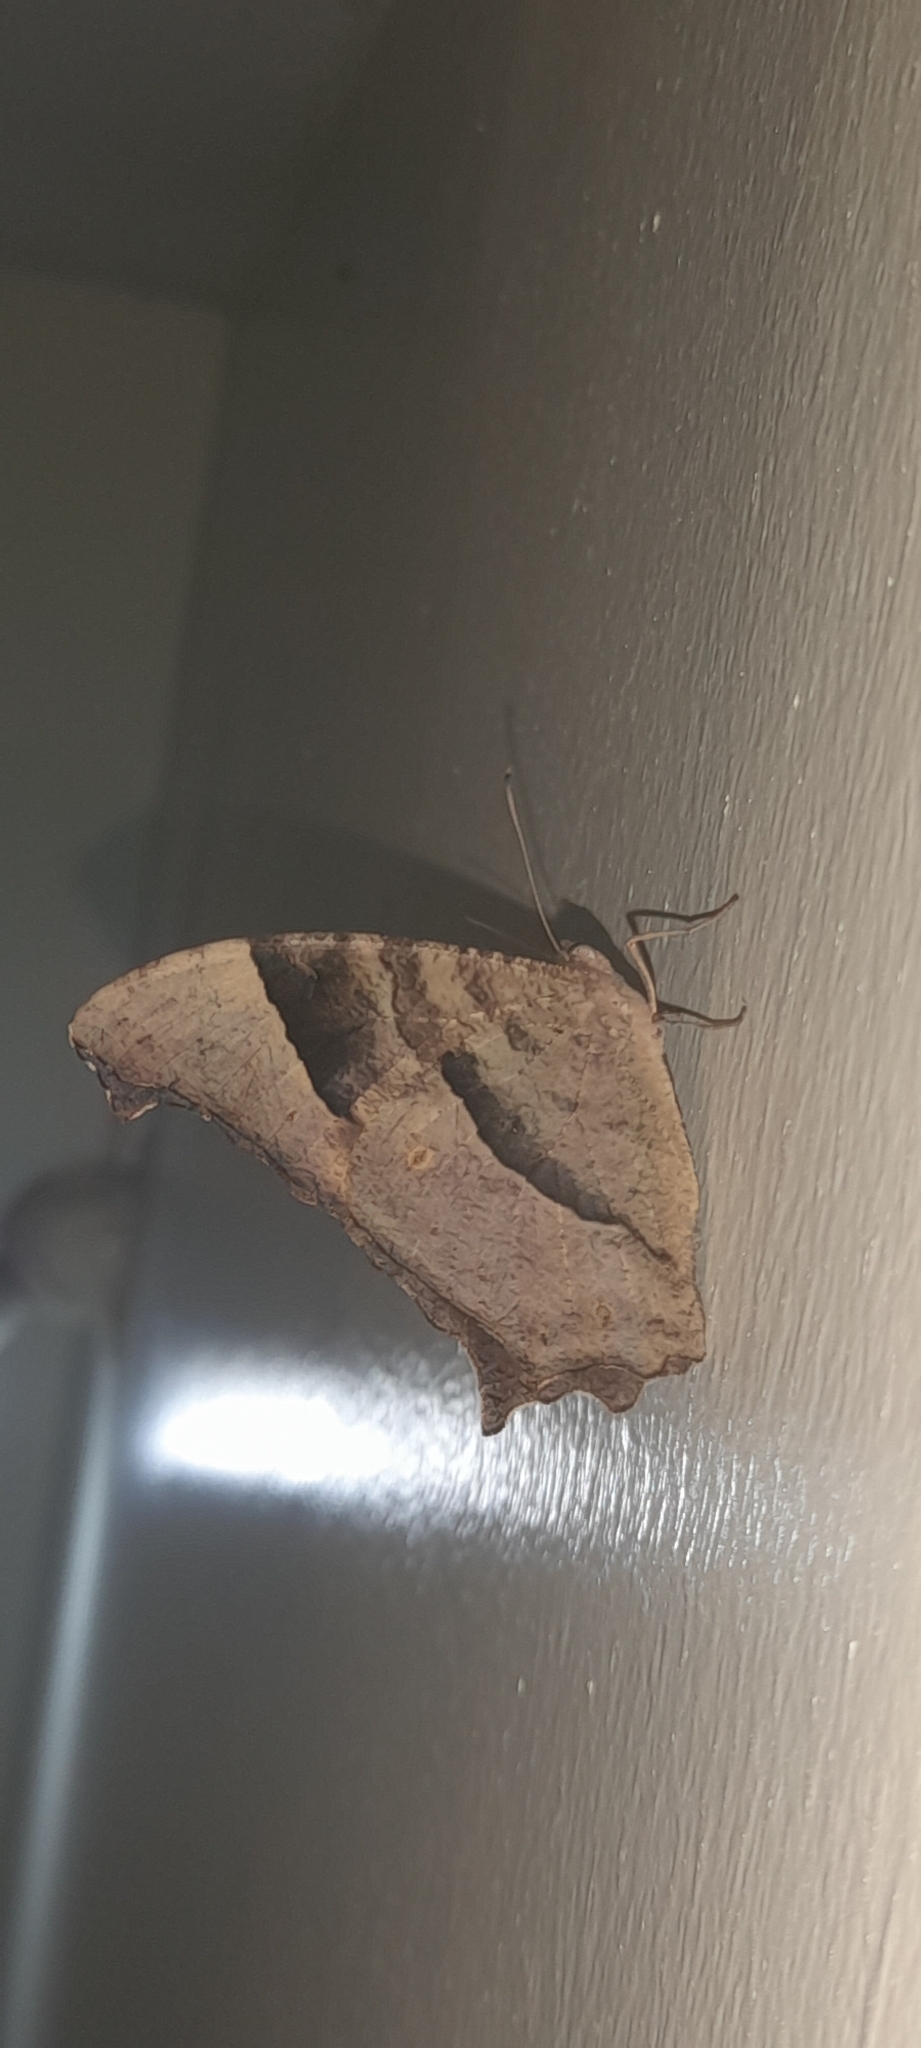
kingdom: Animalia
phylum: Arthropoda
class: Insecta
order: Lepidoptera
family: Nymphalidae
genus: Melanitis
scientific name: Melanitis leda
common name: Twilight brown
